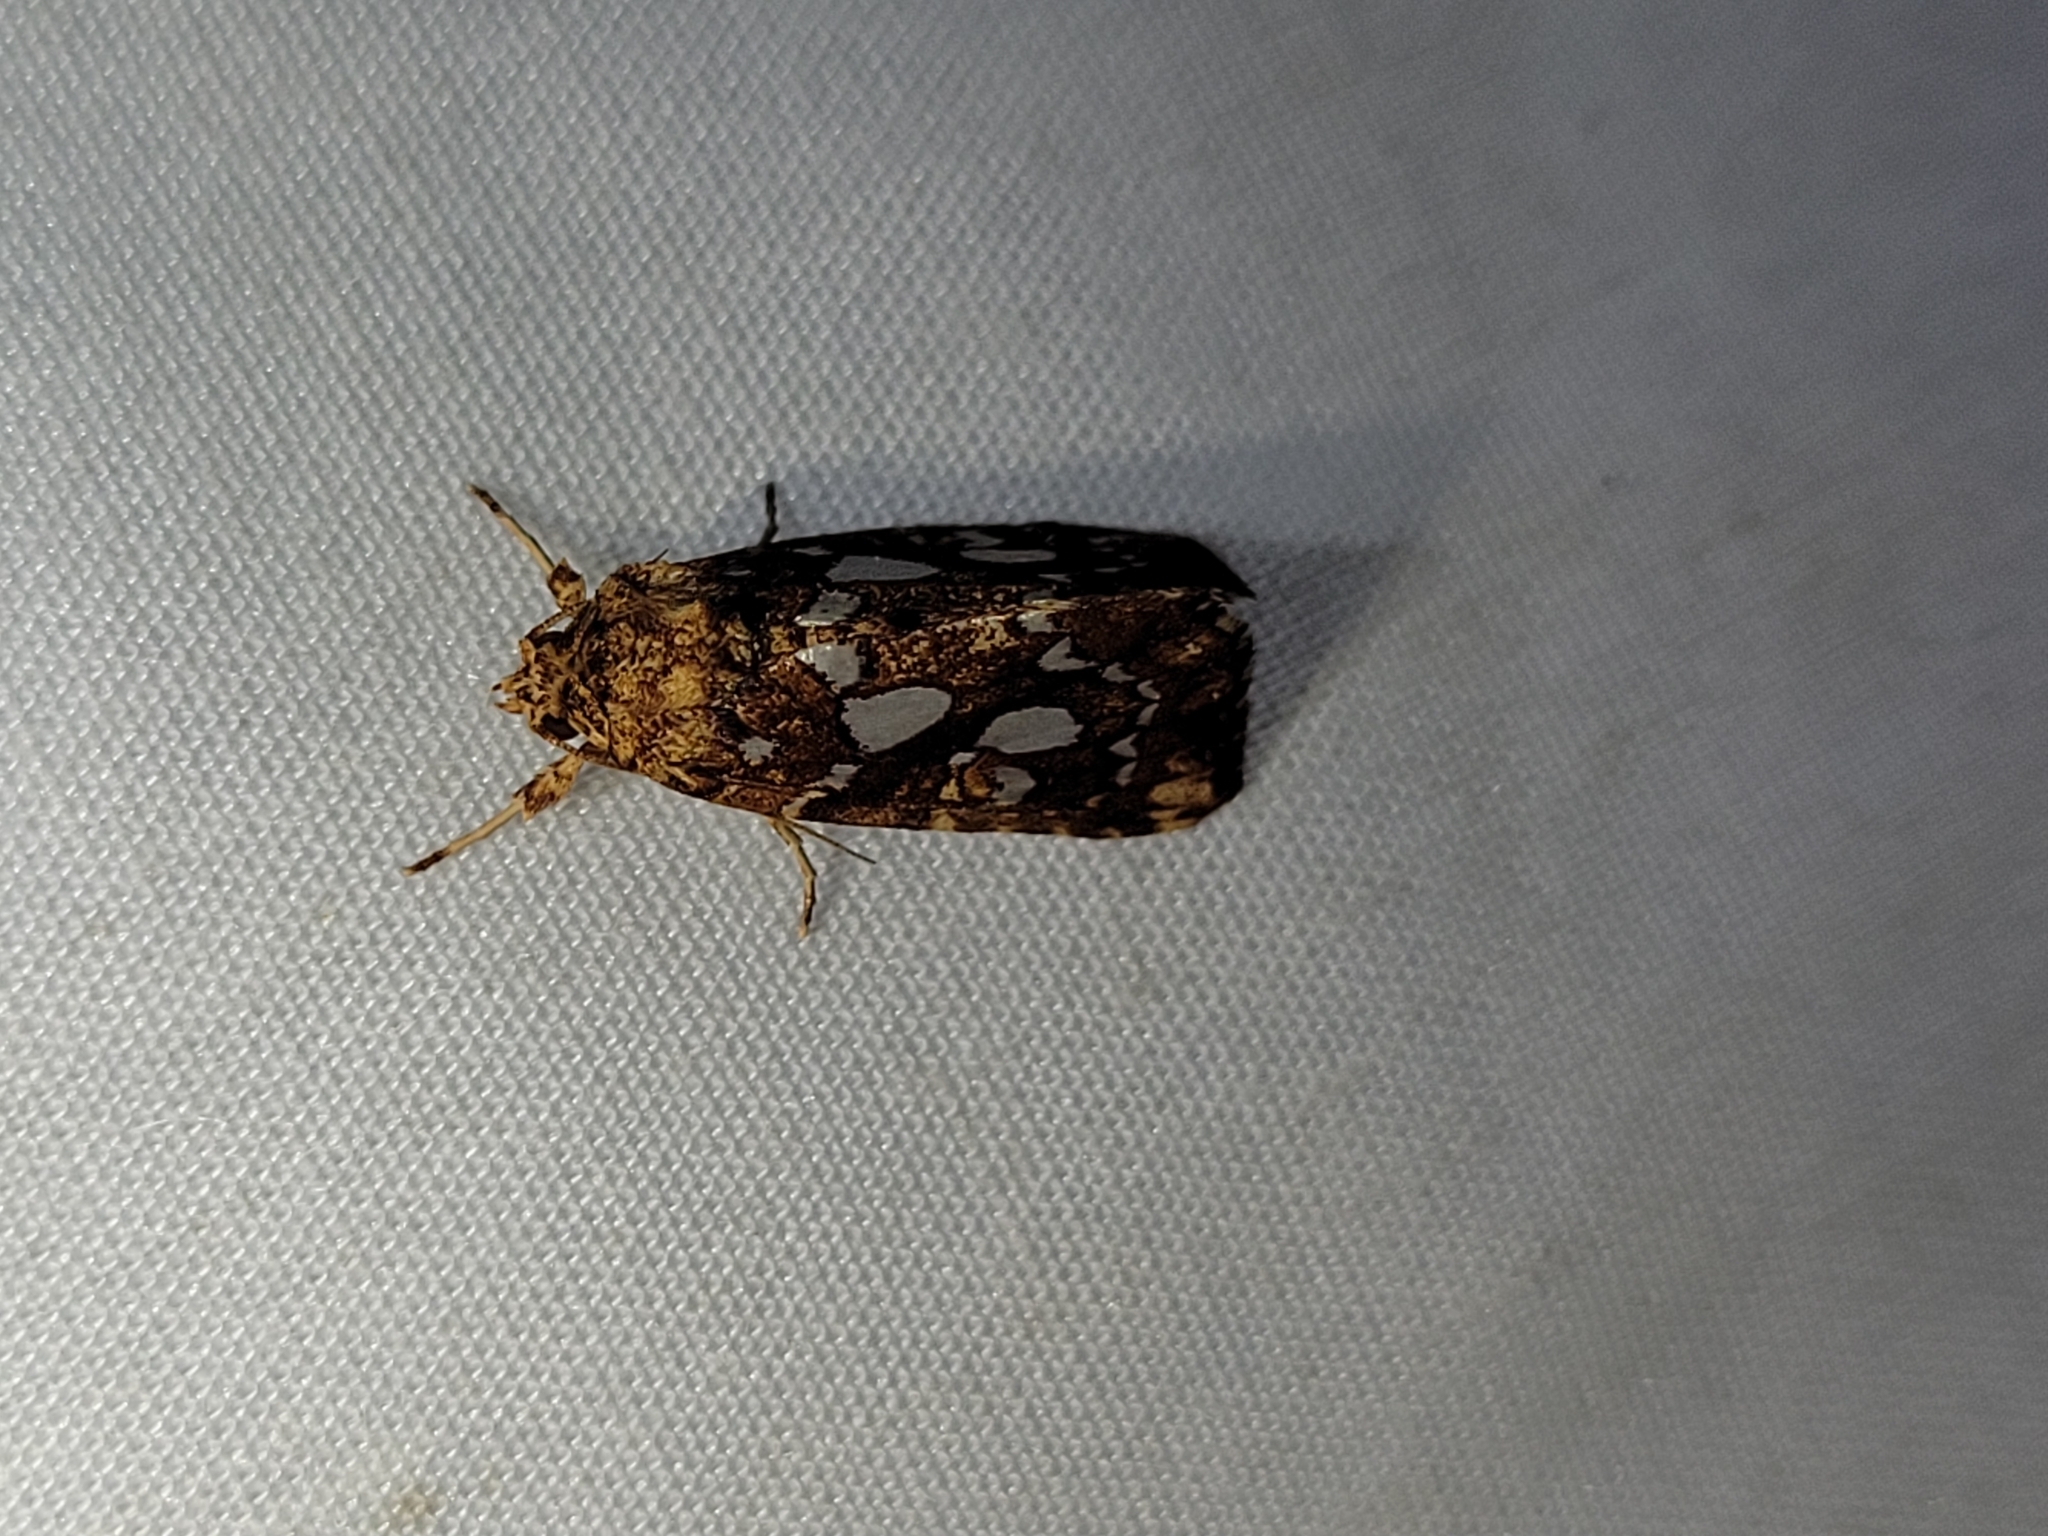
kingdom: Animalia
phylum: Arthropoda
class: Insecta
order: Lepidoptera
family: Noctuidae
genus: Callopistria
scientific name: Callopistria cordata
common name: Silver-spotted fern moth
